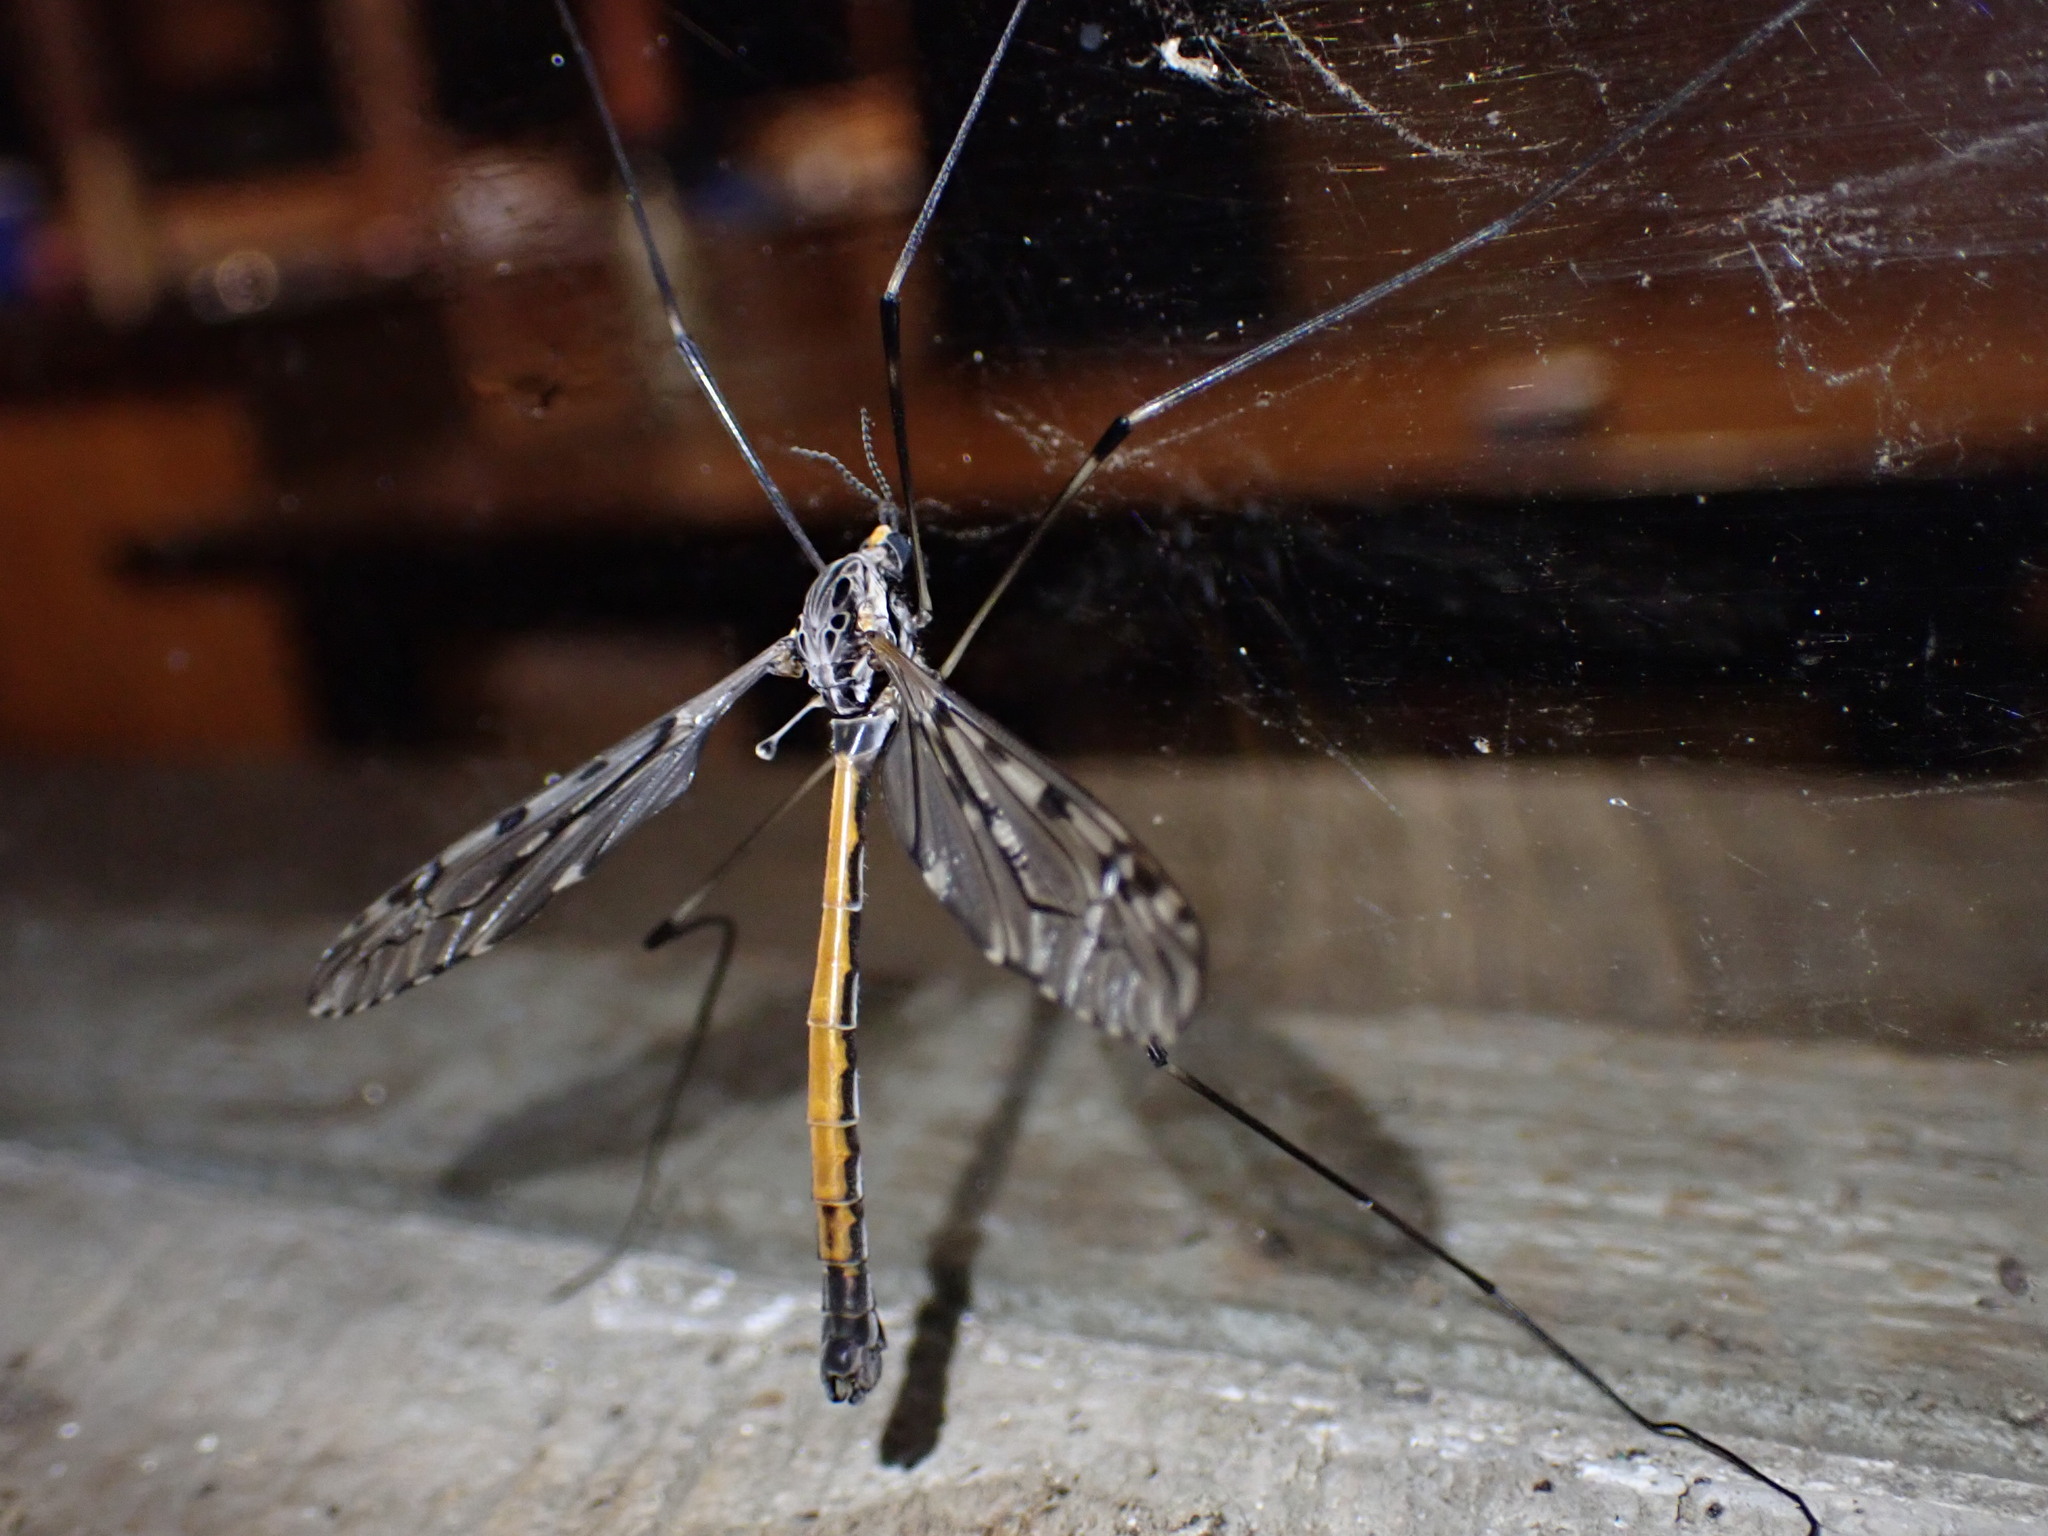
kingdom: Animalia
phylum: Arthropoda
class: Insecta
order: Diptera
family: Tipulidae
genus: Tipula
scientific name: Tipula abdominalis
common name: Giant crane fly
